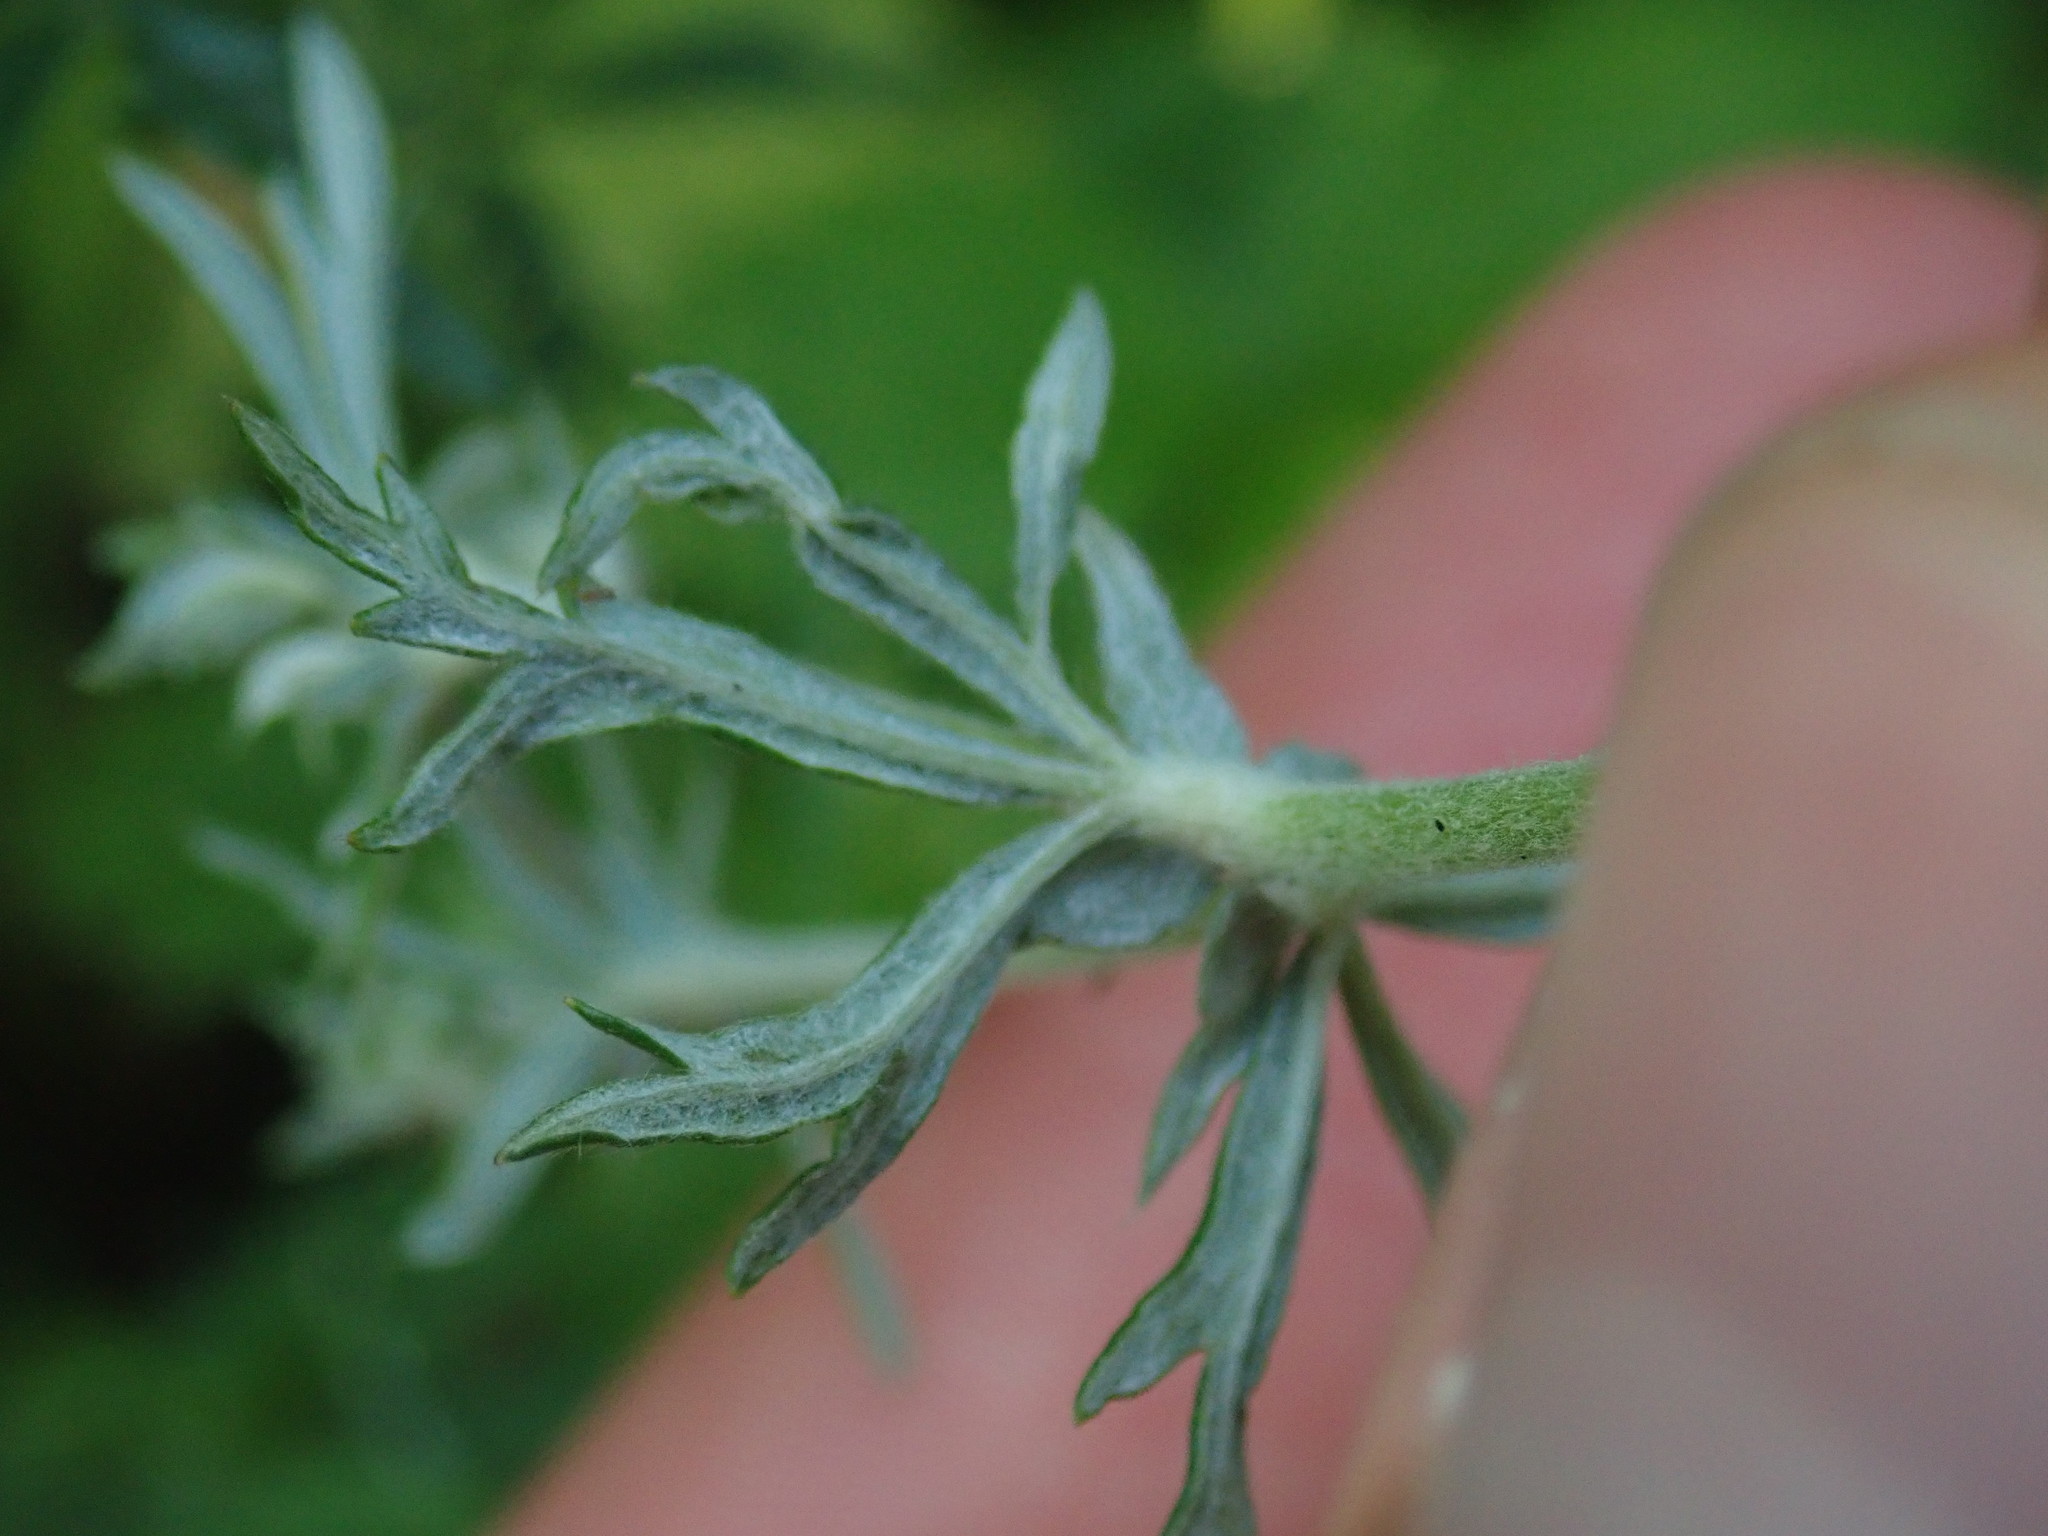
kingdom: Plantae
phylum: Tracheophyta
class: Magnoliopsida
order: Rosales
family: Rosaceae
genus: Potentilla
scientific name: Potentilla argentea
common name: Hoary cinquefoil
